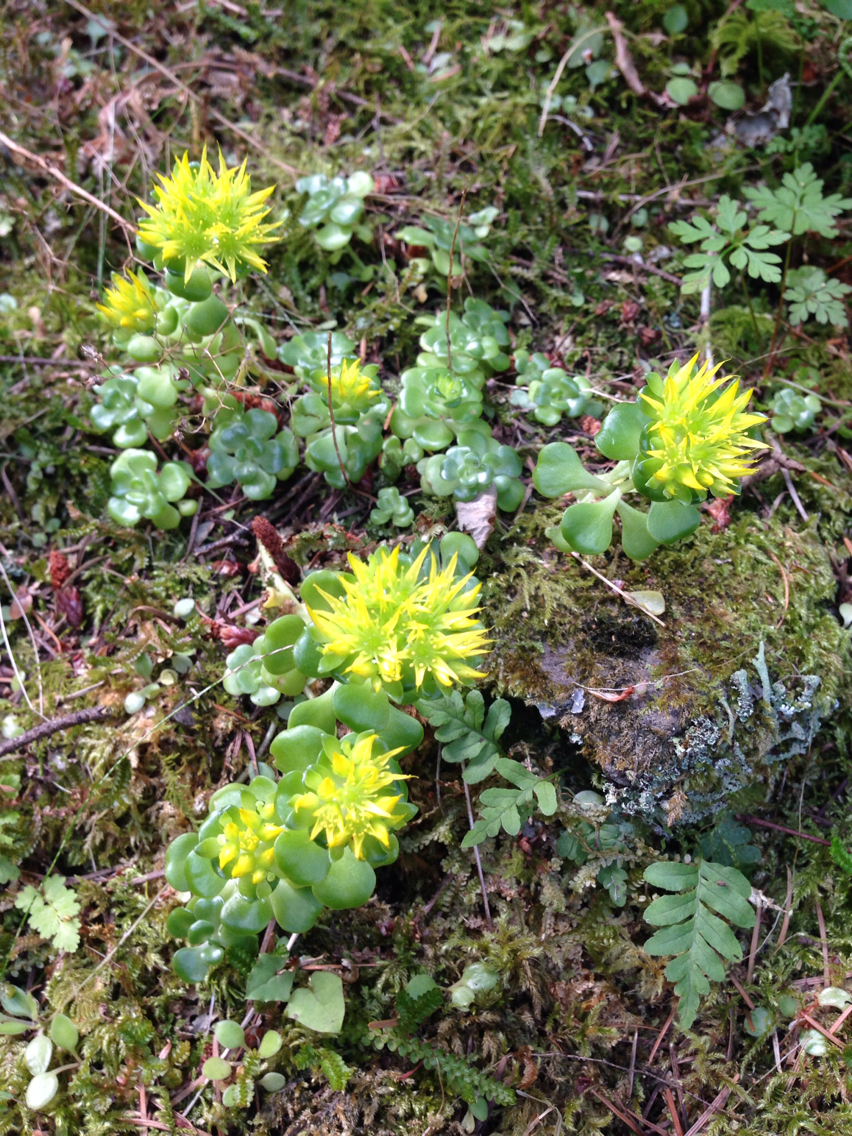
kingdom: Plantae
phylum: Tracheophyta
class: Magnoliopsida
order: Saxifragales
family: Crassulaceae
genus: Sedum
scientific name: Sedum oreganum
